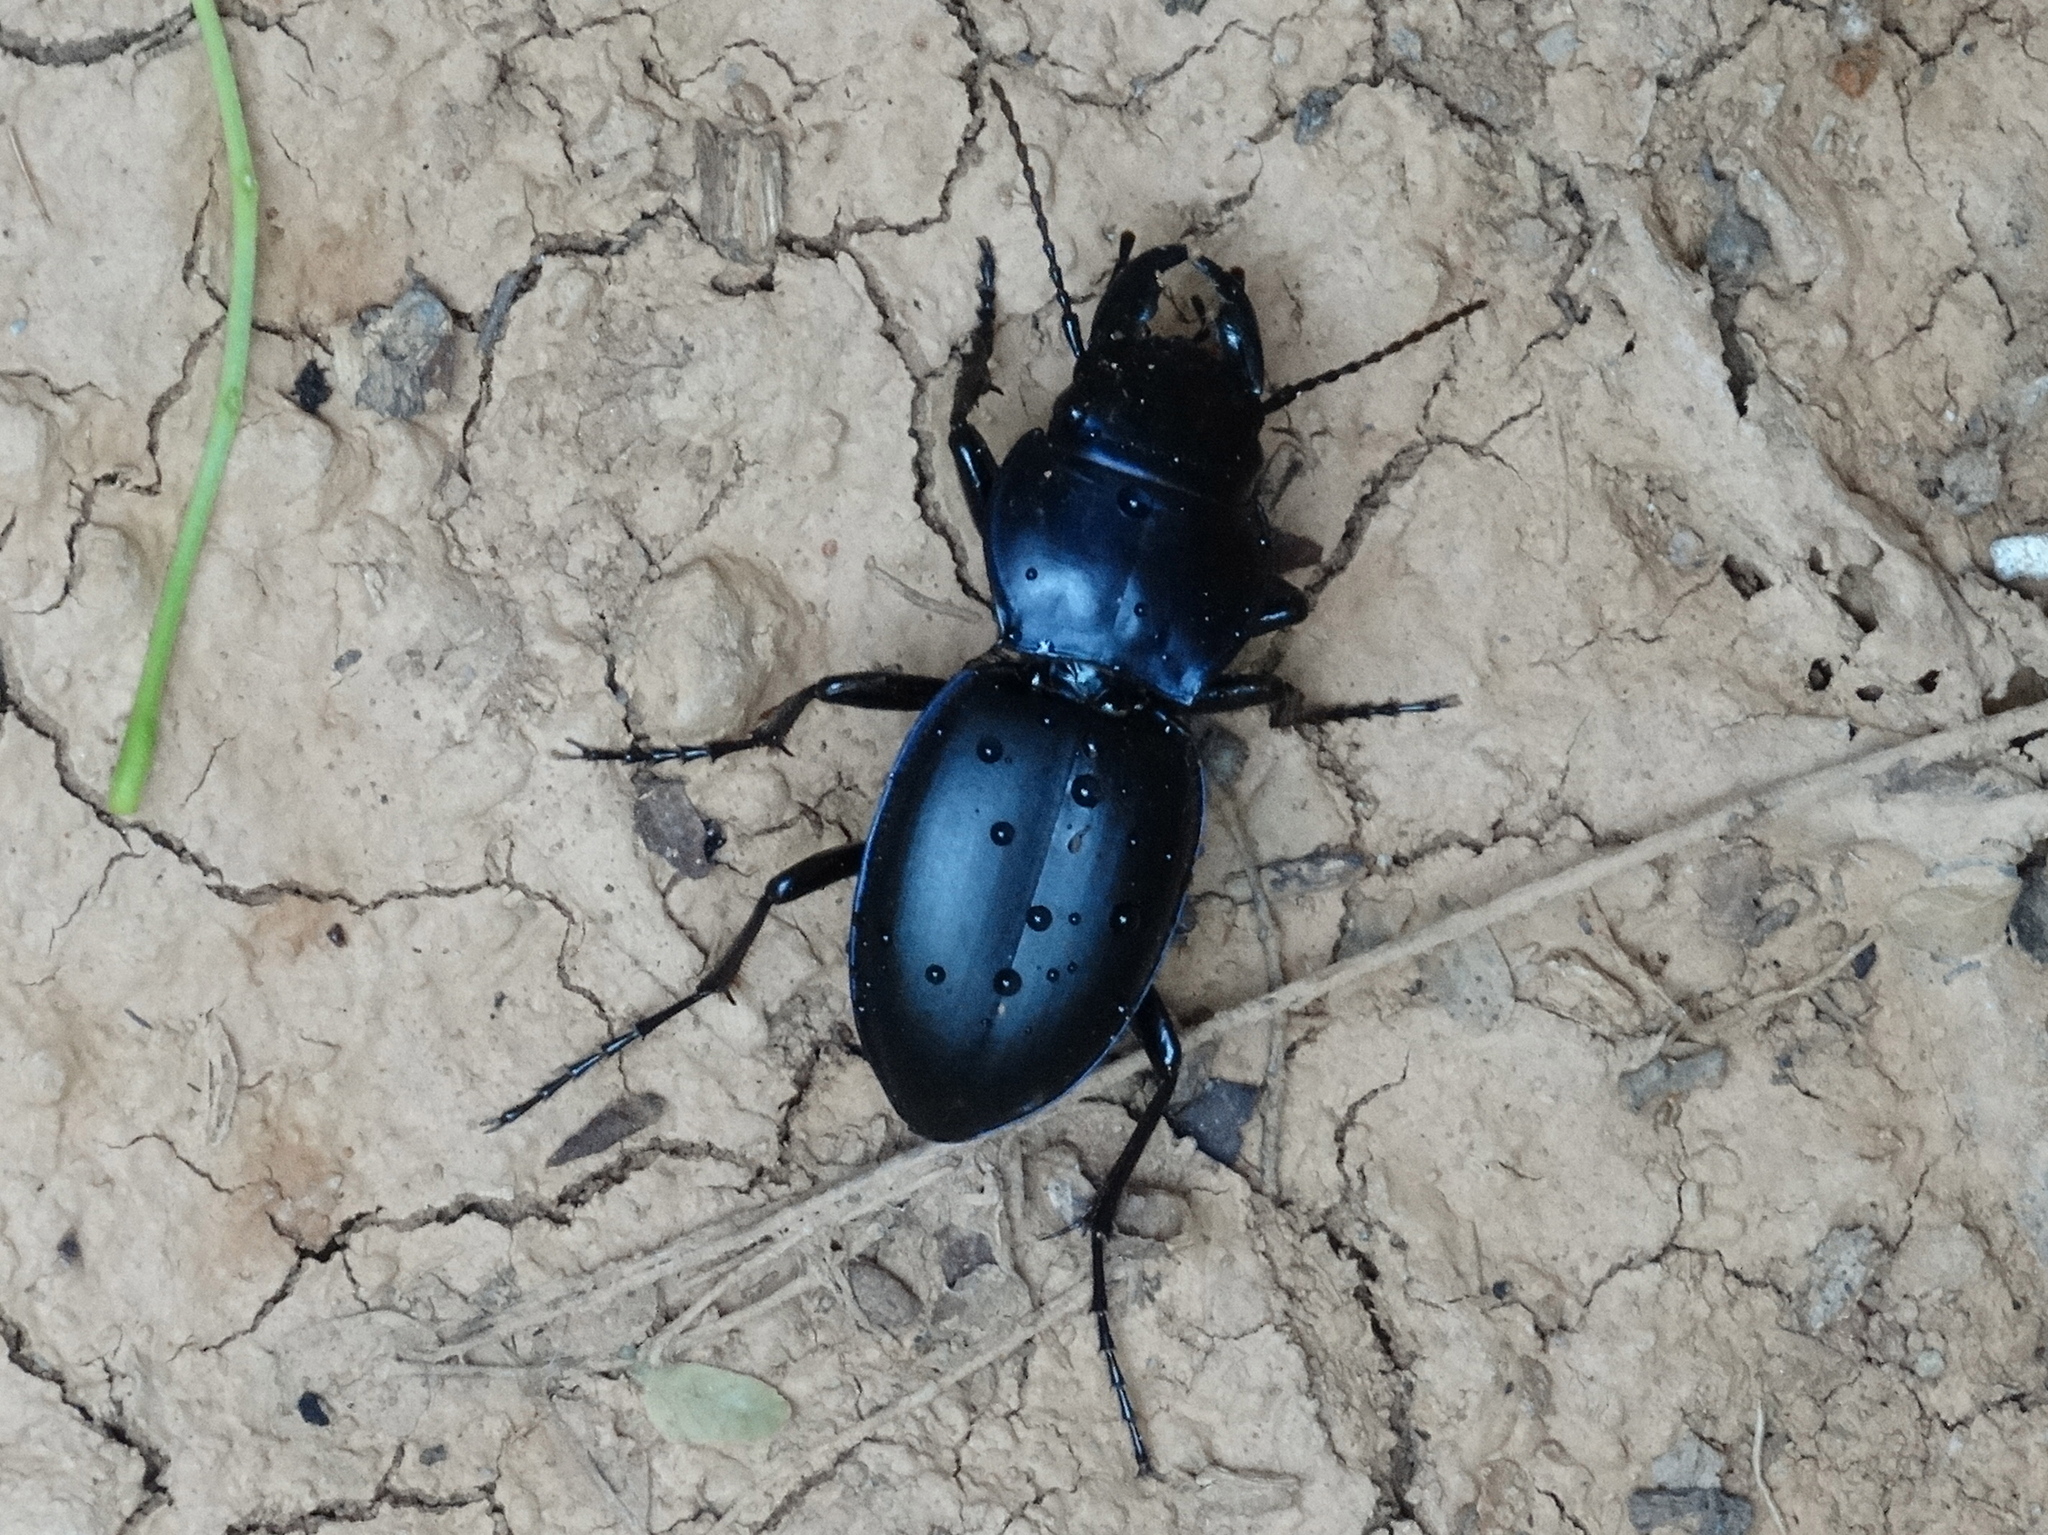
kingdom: Animalia
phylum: Arthropoda
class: Insecta
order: Coleoptera
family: Carabidae
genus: Pasimachus
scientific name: Pasimachus
